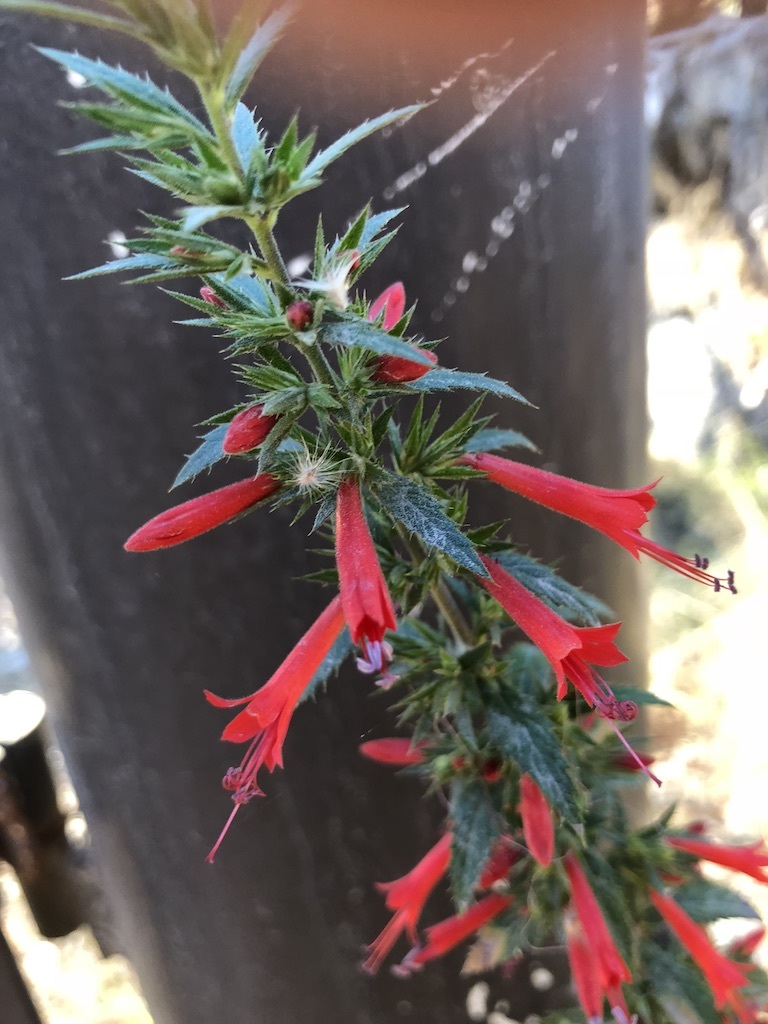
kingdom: Plantae
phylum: Tracheophyta
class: Magnoliopsida
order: Ericales
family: Polemoniaceae
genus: Loeselia
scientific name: Loeselia mexicana
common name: Mexican false calico
